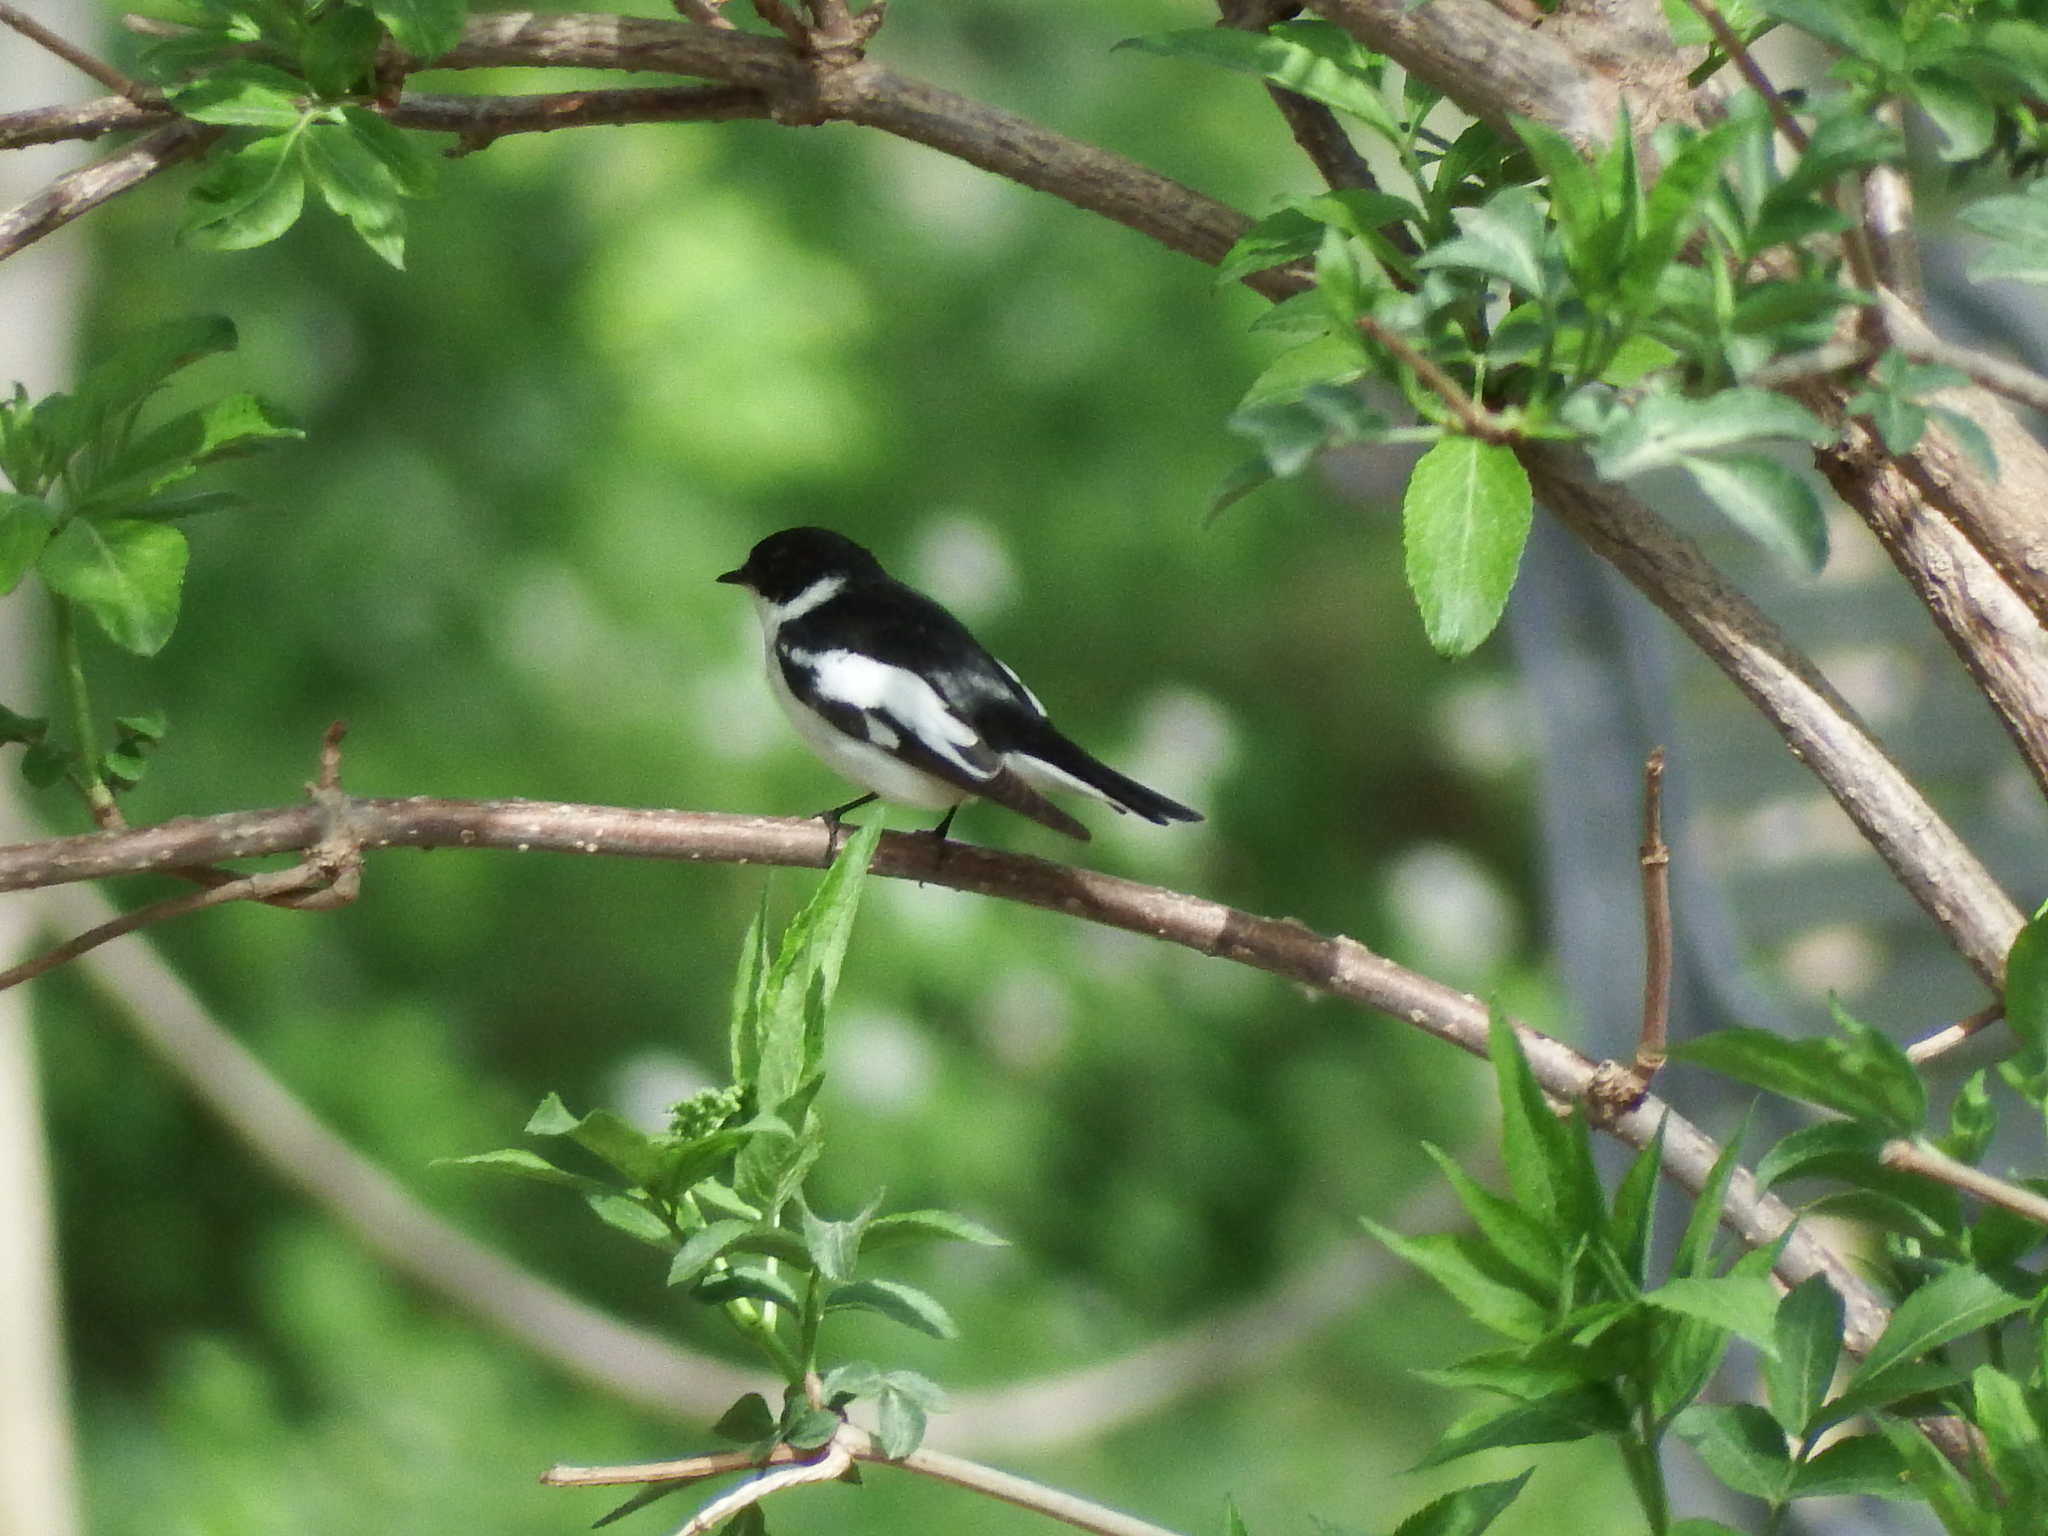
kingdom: Animalia
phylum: Chordata
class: Aves
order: Passeriformes
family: Muscicapidae
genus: Ficedula
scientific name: Ficedula semitorquata
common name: Semicollared flycatcher
